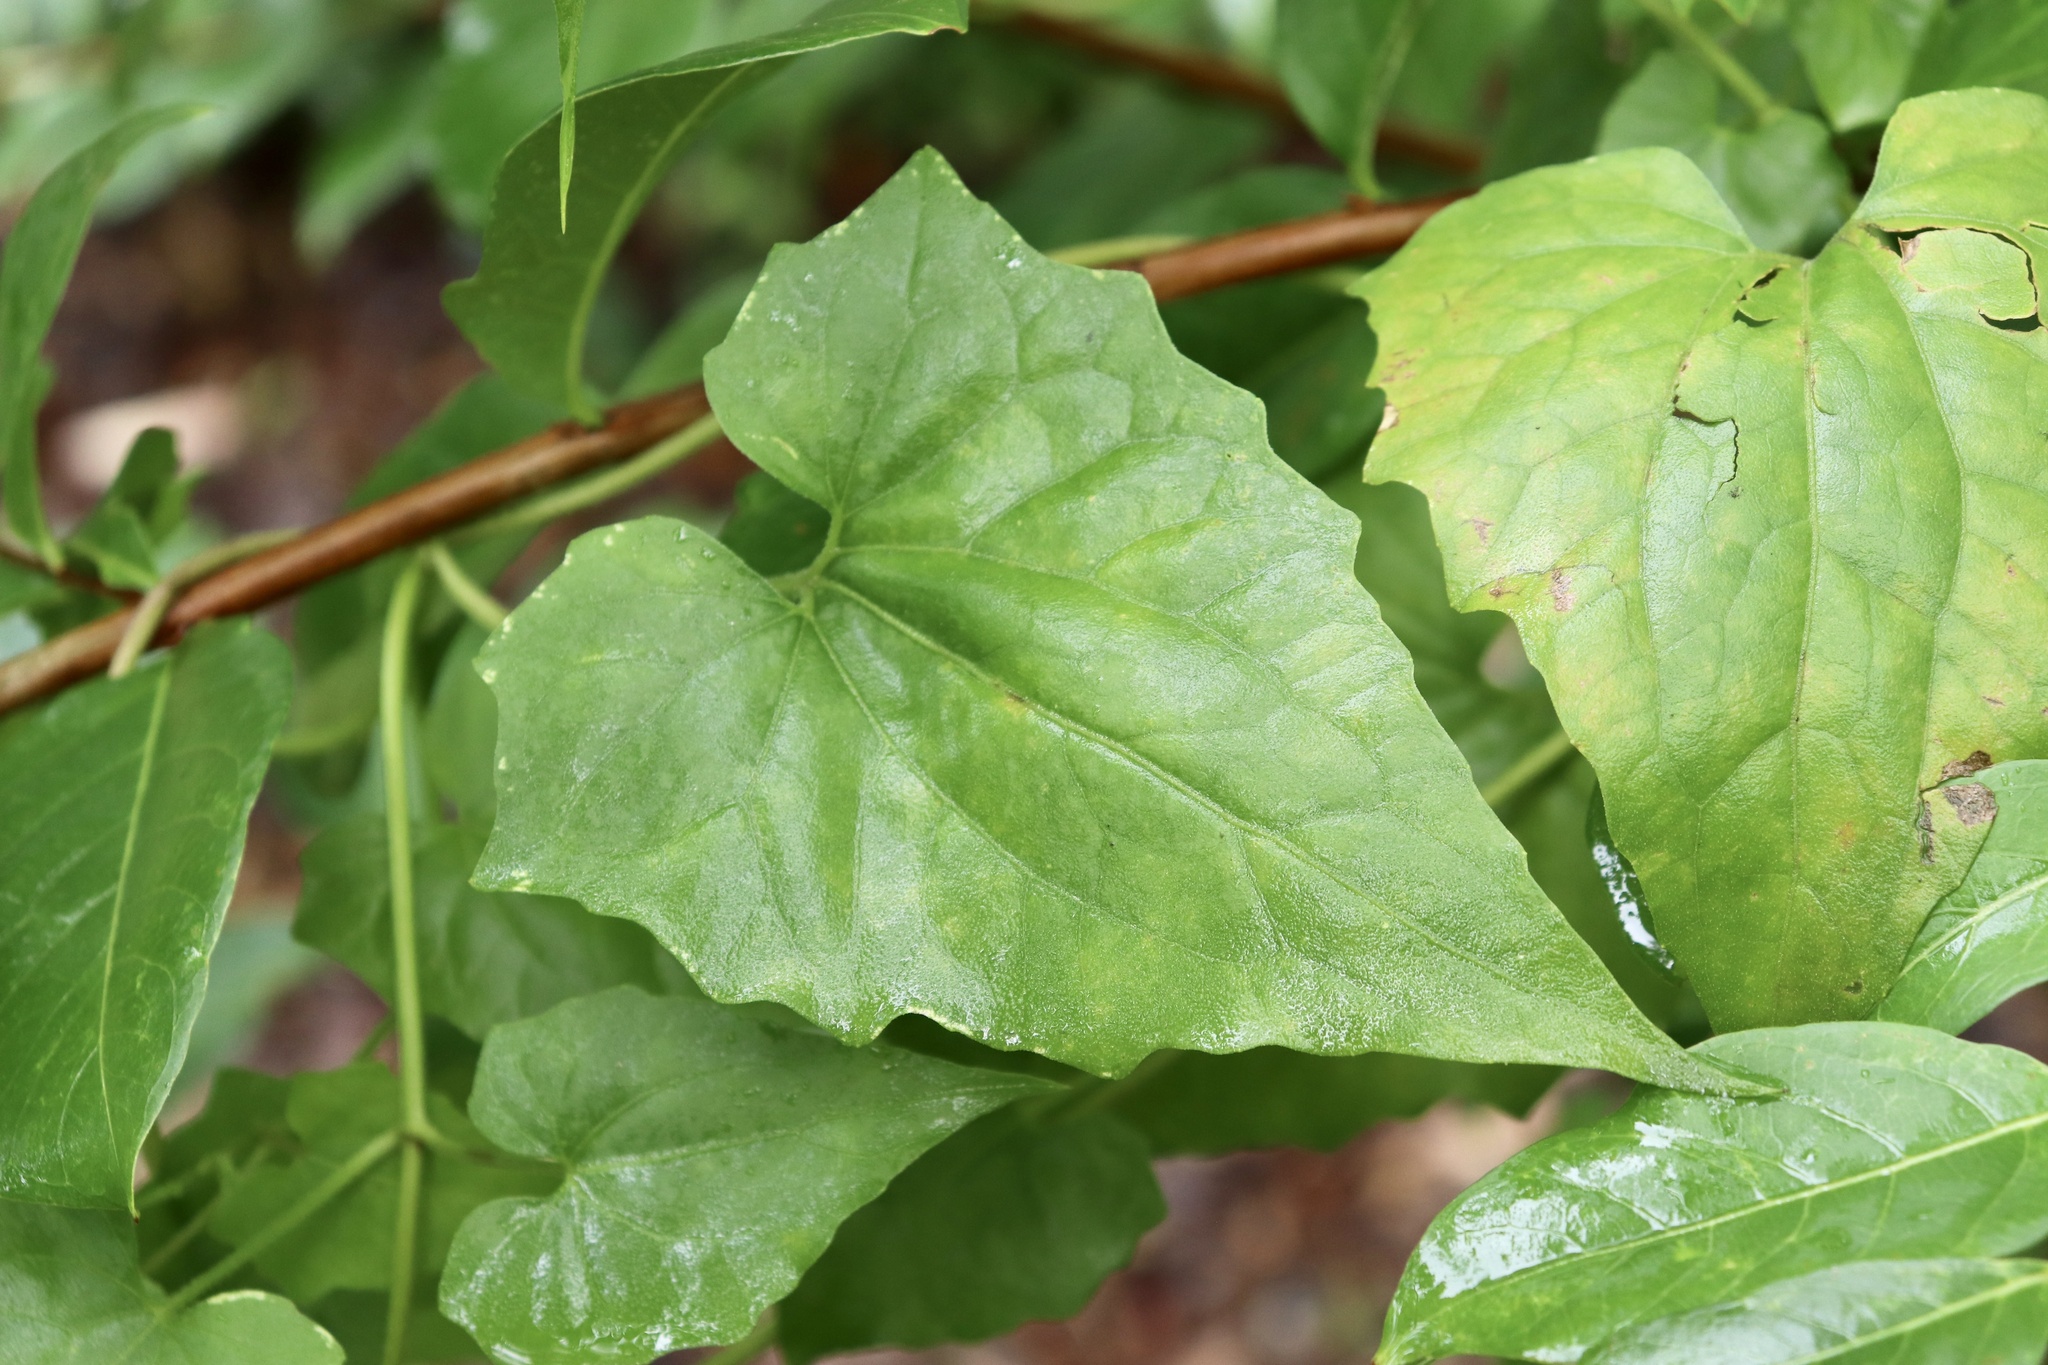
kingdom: Plantae
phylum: Tracheophyta
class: Magnoliopsida
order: Asterales
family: Asteraceae
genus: Mikania
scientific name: Mikania scandens
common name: Climbing hempvine
